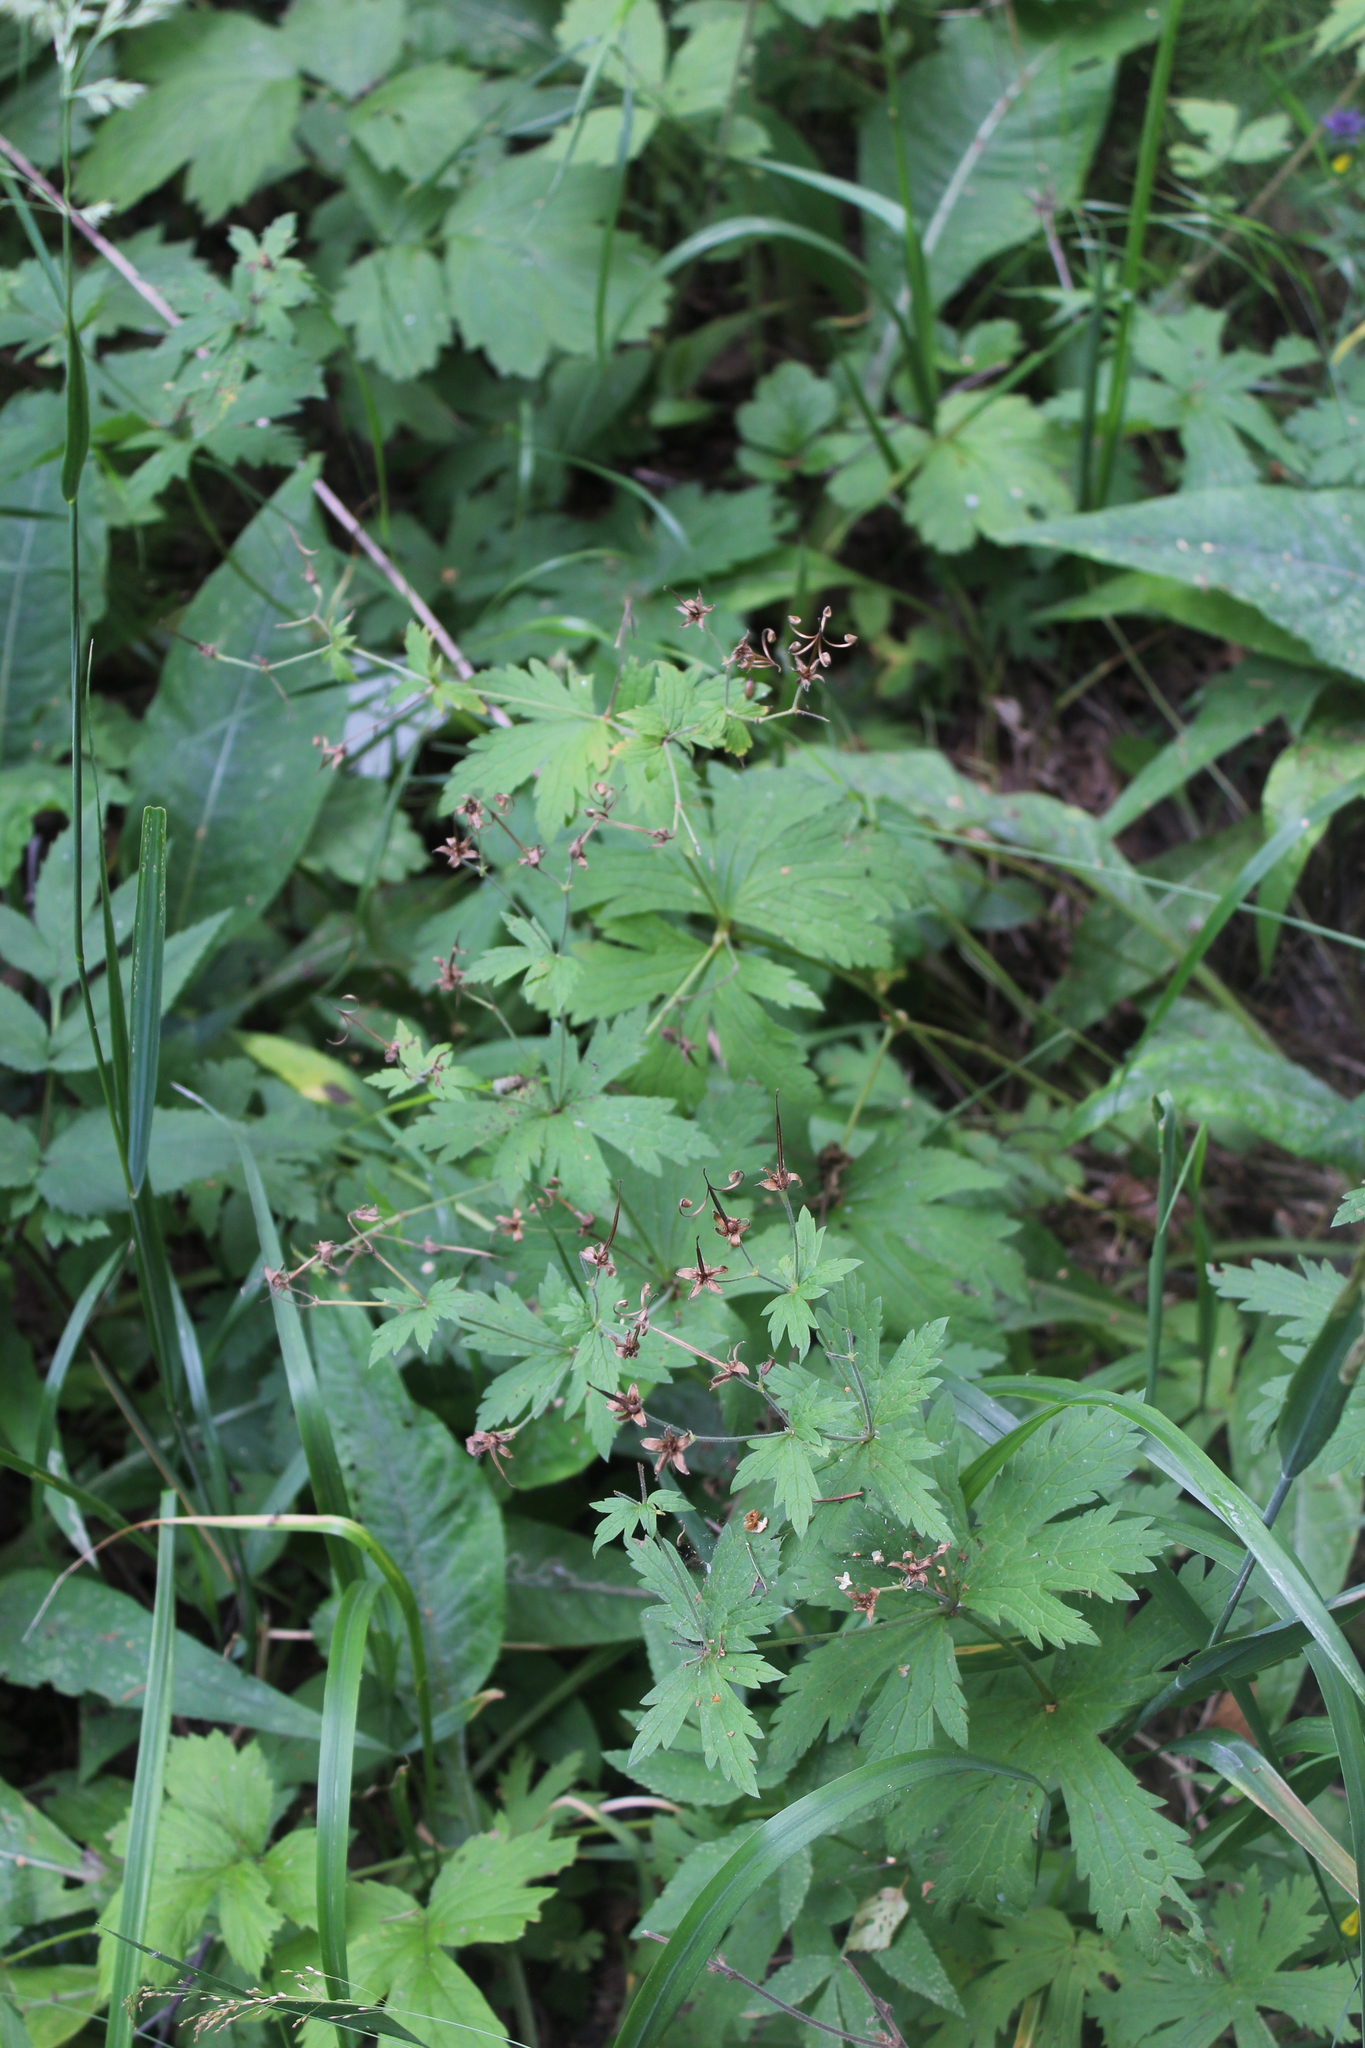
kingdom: Plantae
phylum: Tracheophyta
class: Magnoliopsida
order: Geraniales
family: Geraniaceae
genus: Geranium
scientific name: Geranium sylvaticum
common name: Wood crane's-bill
